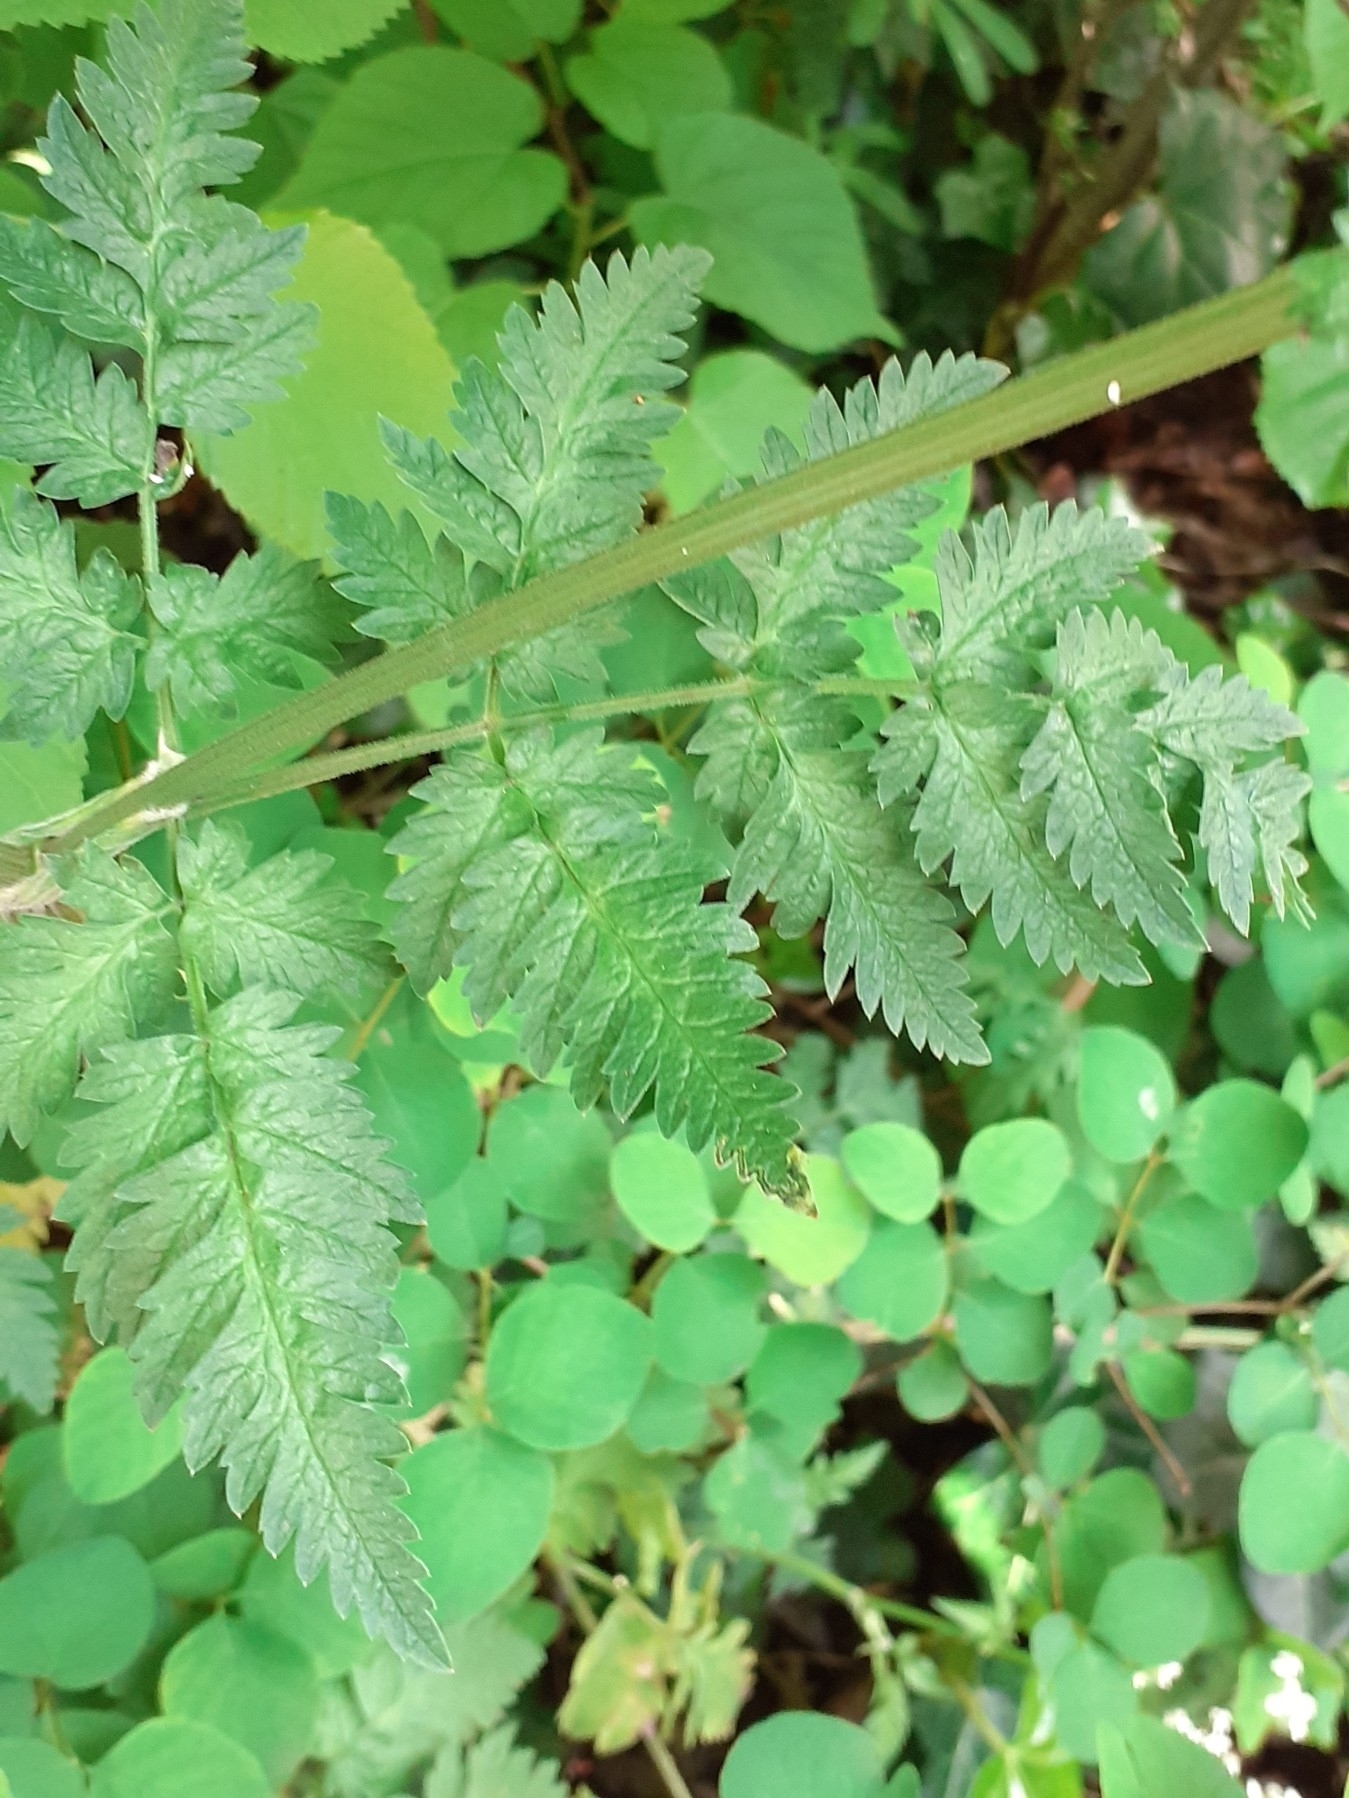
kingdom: Plantae
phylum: Tracheophyta
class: Magnoliopsida
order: Apiales
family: Apiaceae
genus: Anthriscus
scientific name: Anthriscus sylvestris
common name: Cow parsley
